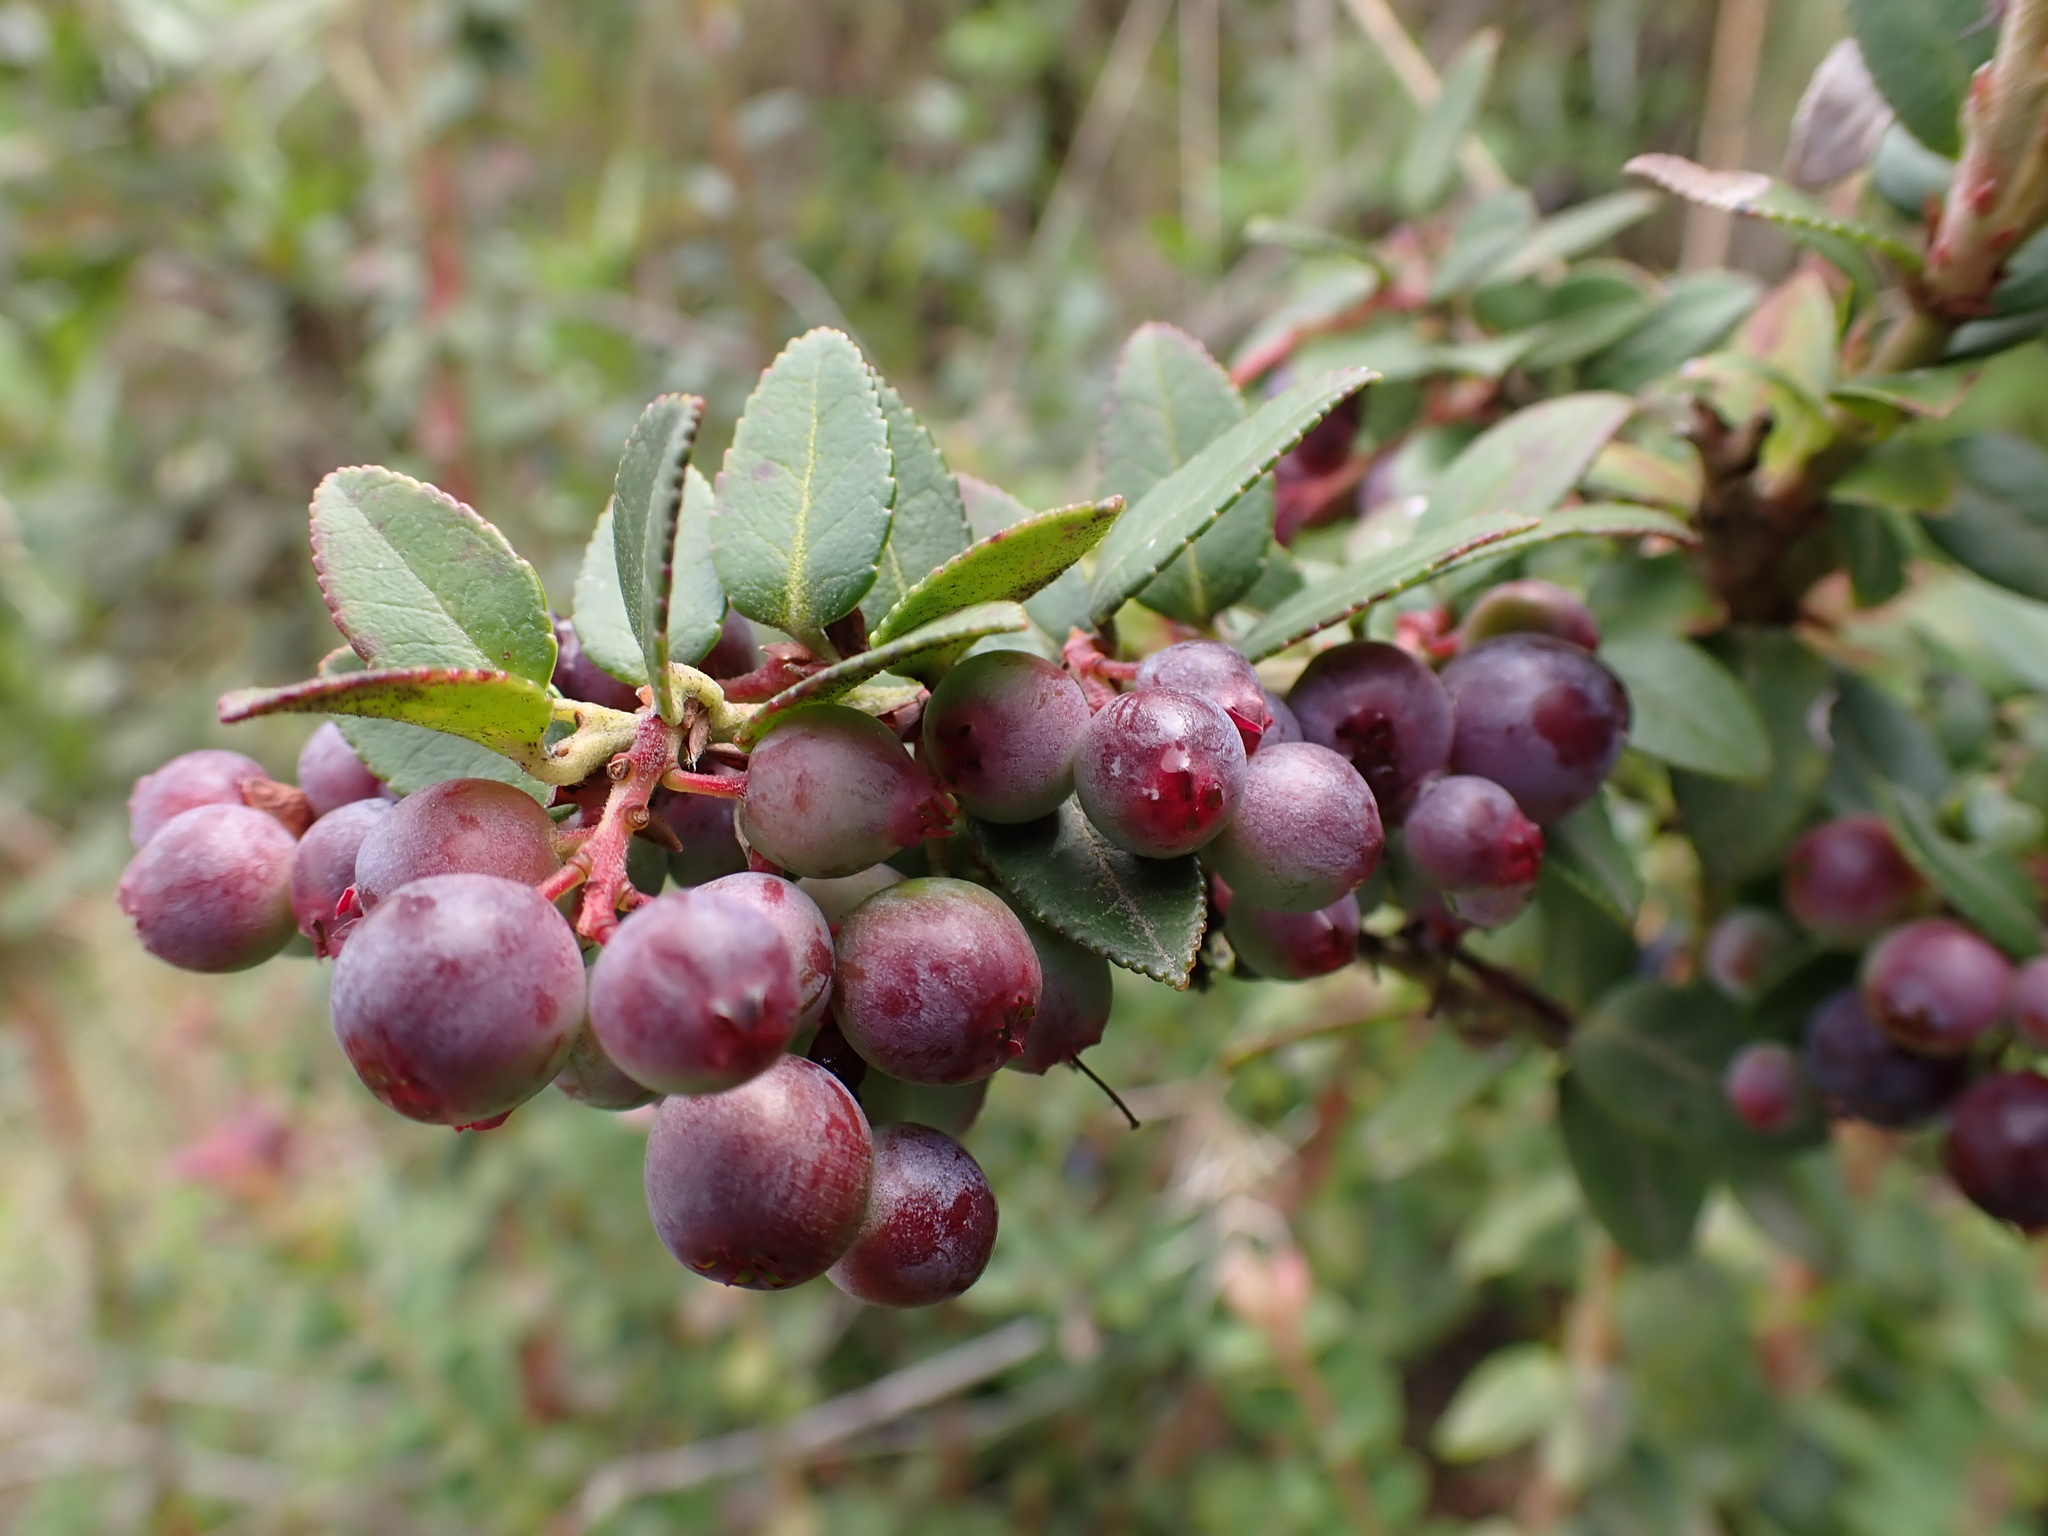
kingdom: Plantae
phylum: Tracheophyta
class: Magnoliopsida
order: Ericales
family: Ericaceae
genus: Vaccinium
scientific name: Vaccinium floribundum
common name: Colombian blueberry
